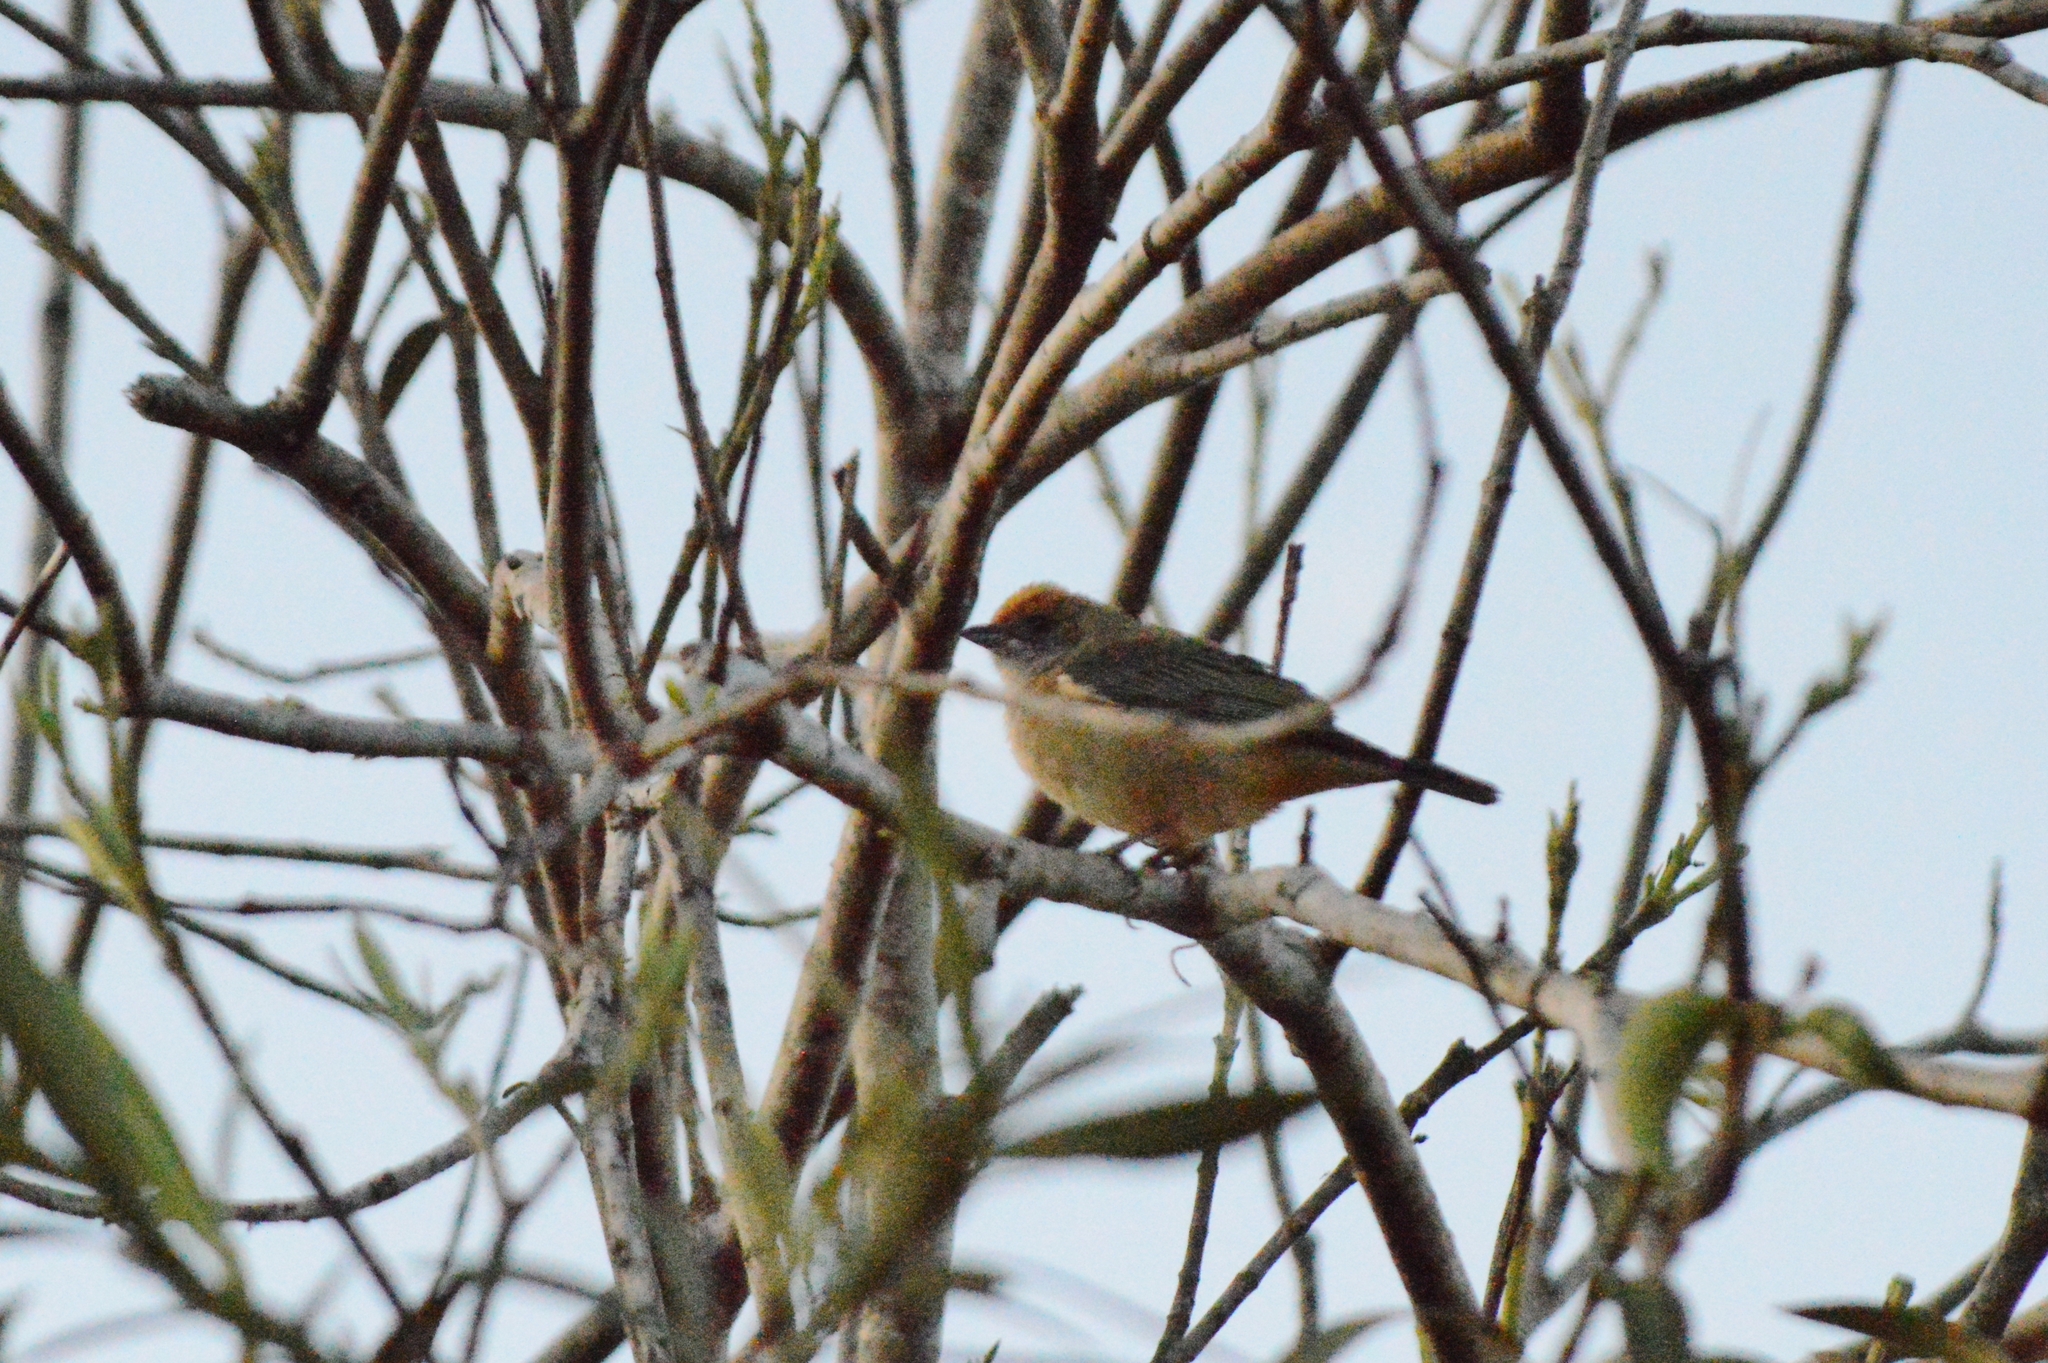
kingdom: Animalia
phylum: Chordata
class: Aves
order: Passeriformes
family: Thraupidae
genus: Stilpnia
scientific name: Stilpnia cayana
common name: Burnished-buff tanager
